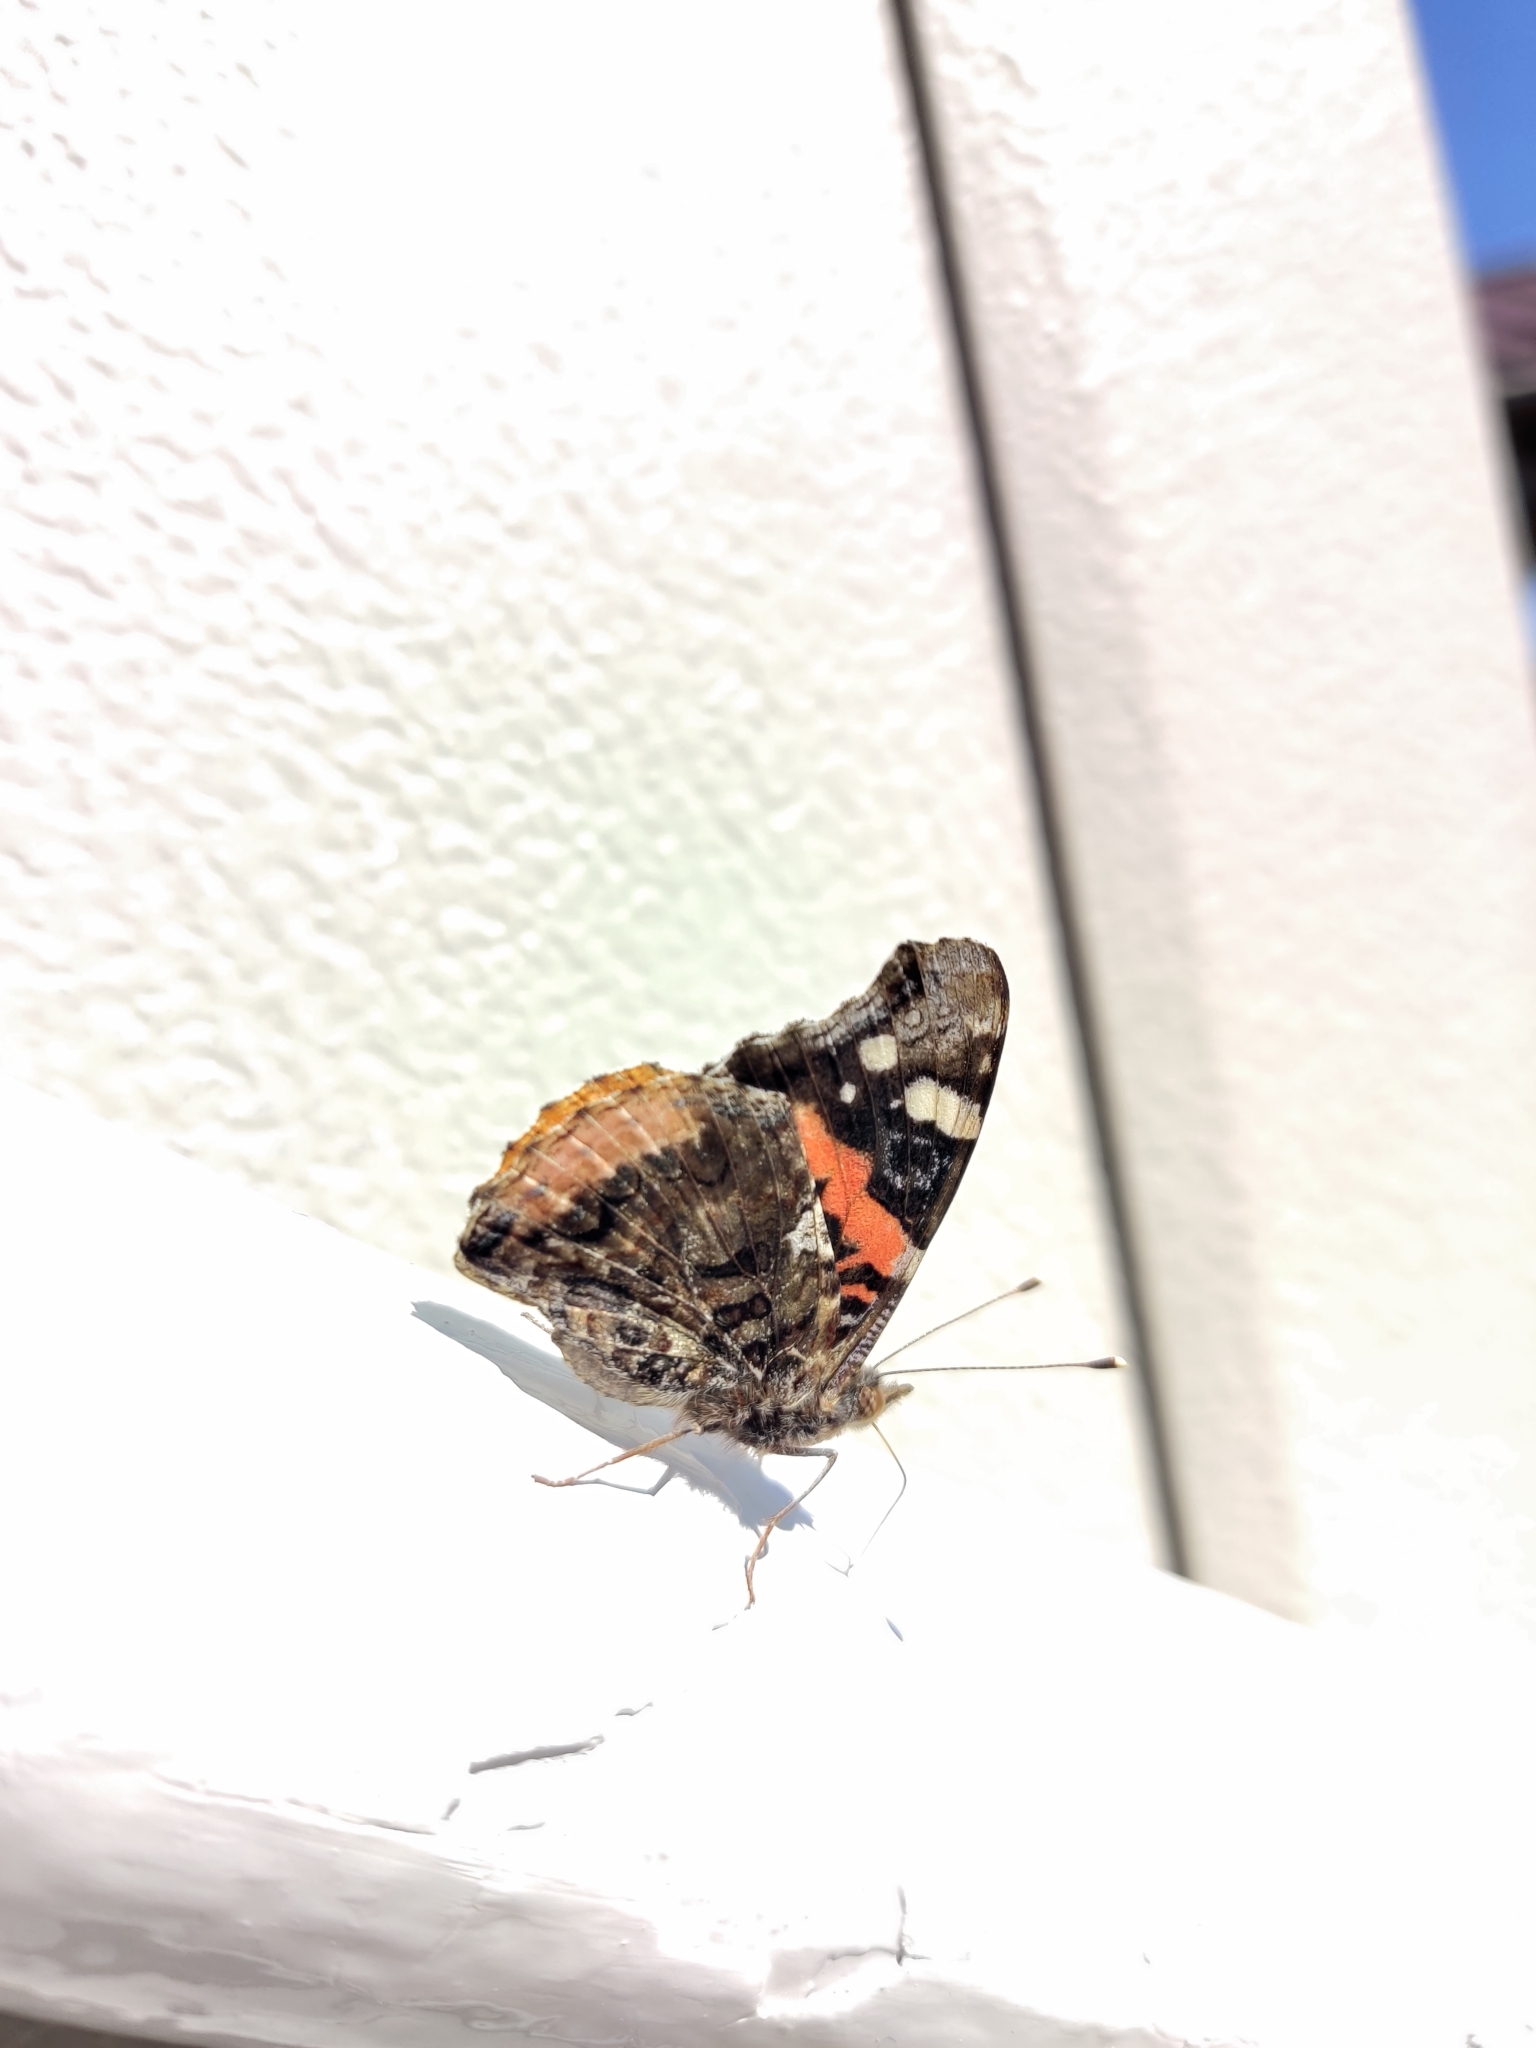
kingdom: Animalia
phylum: Arthropoda
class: Insecta
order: Lepidoptera
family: Nymphalidae
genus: Vanessa
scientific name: Vanessa atalanta
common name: Red admiral
